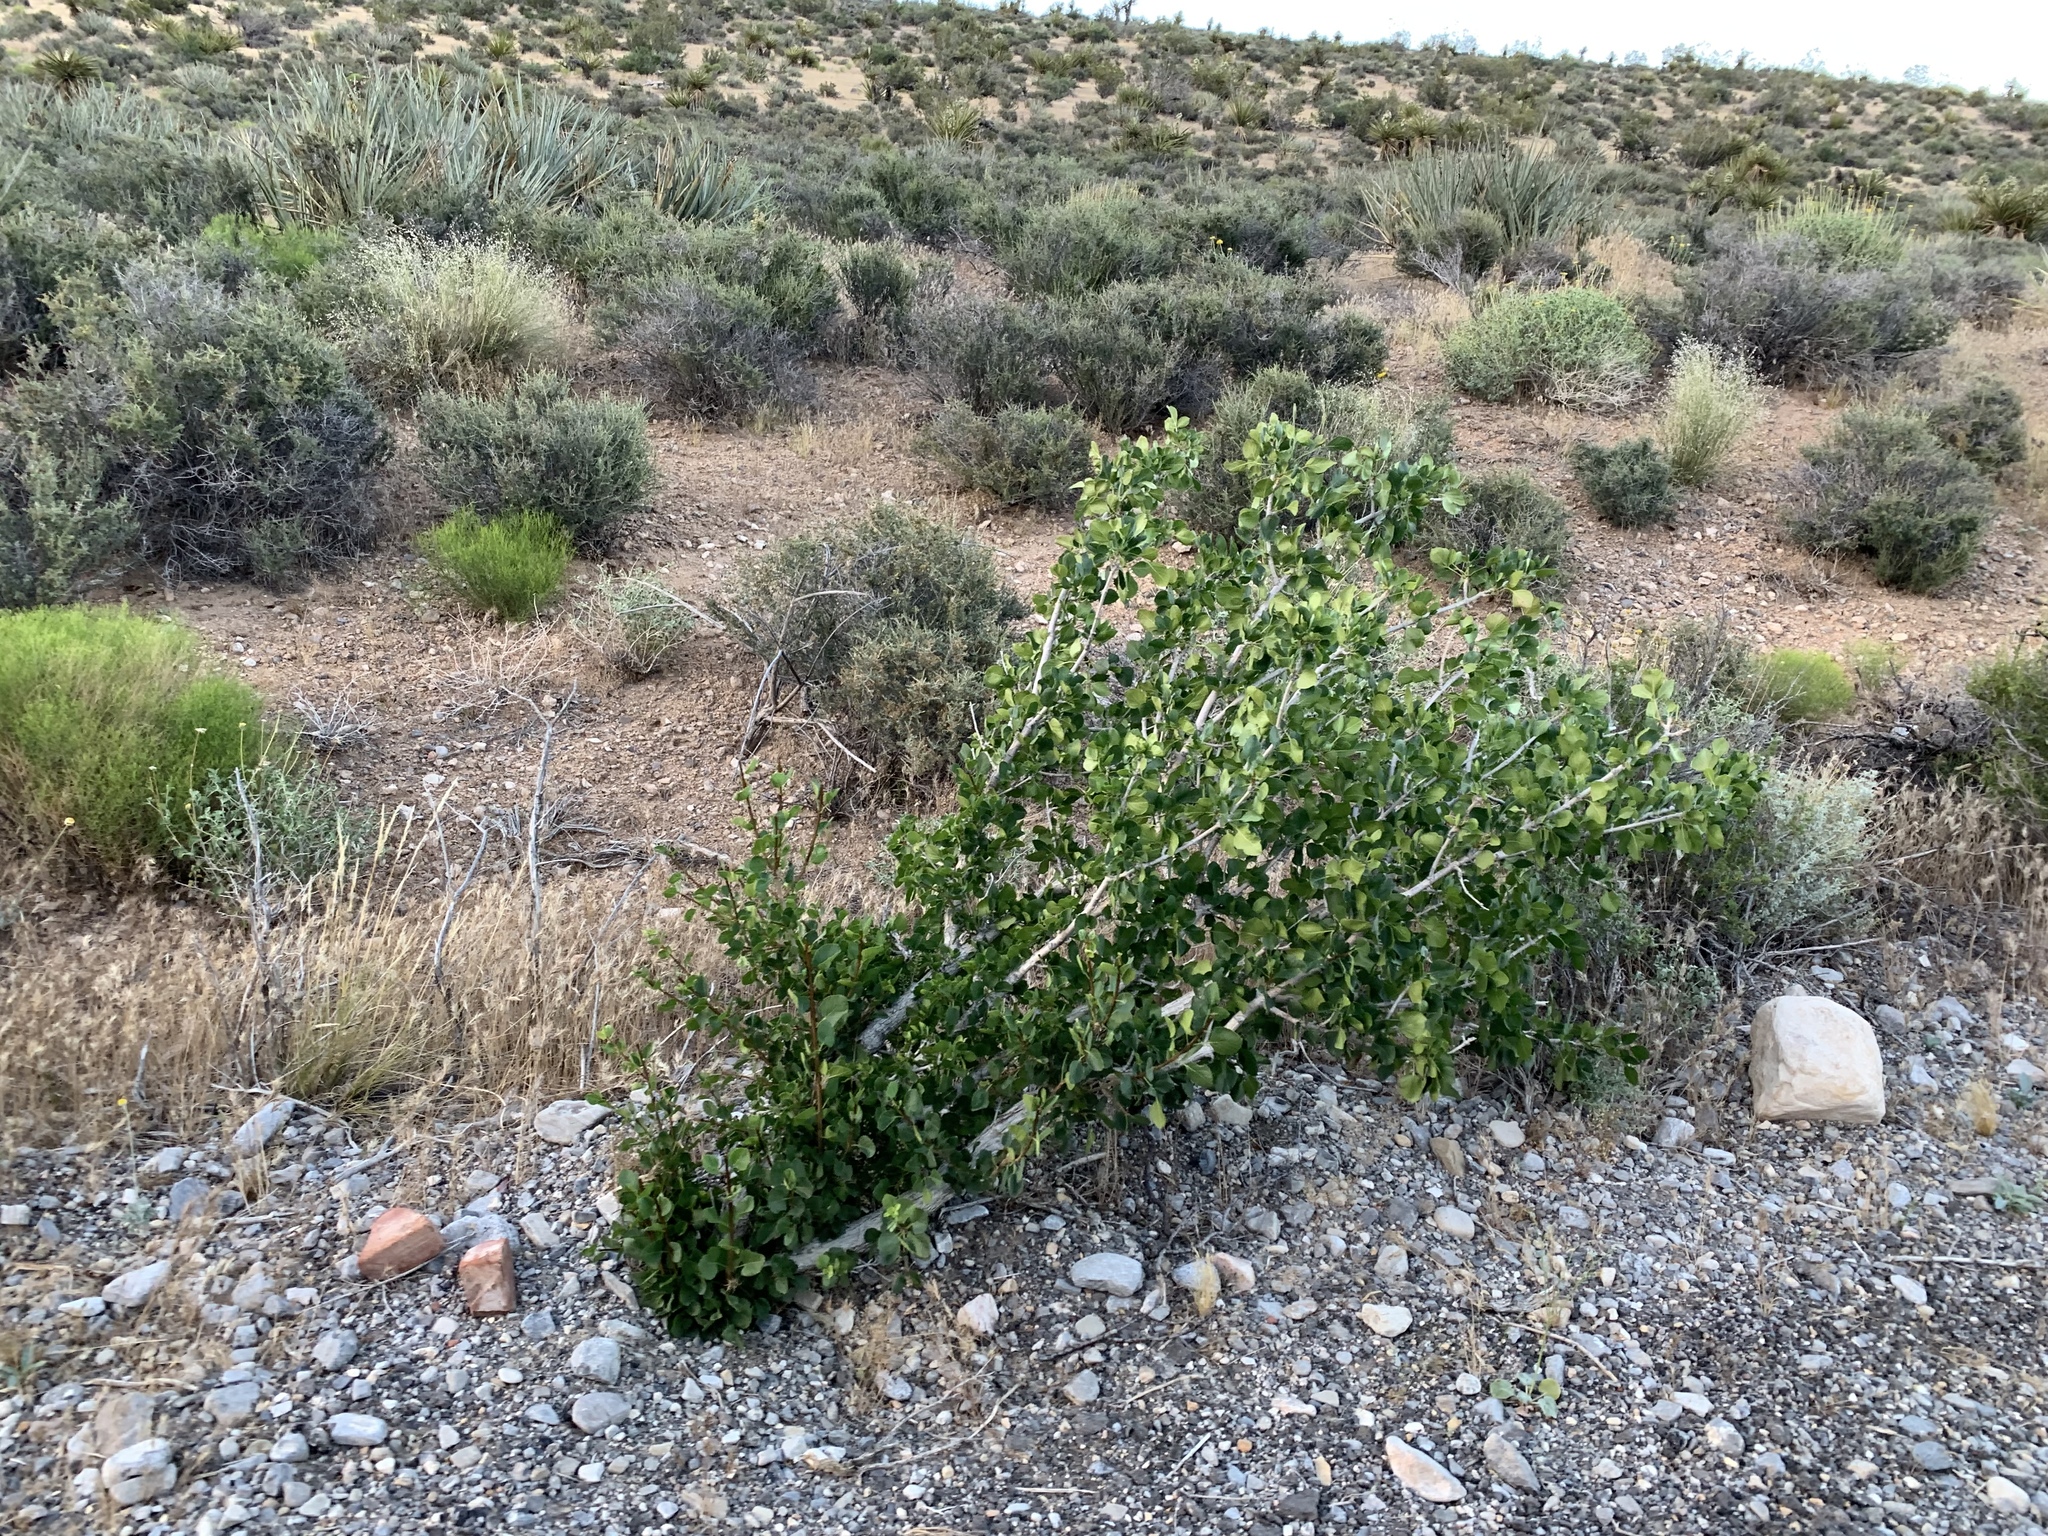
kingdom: Plantae
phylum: Tracheophyta
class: Magnoliopsida
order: Lamiales
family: Oleaceae
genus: Fraxinus
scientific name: Fraxinus anomala
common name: Utah ash
